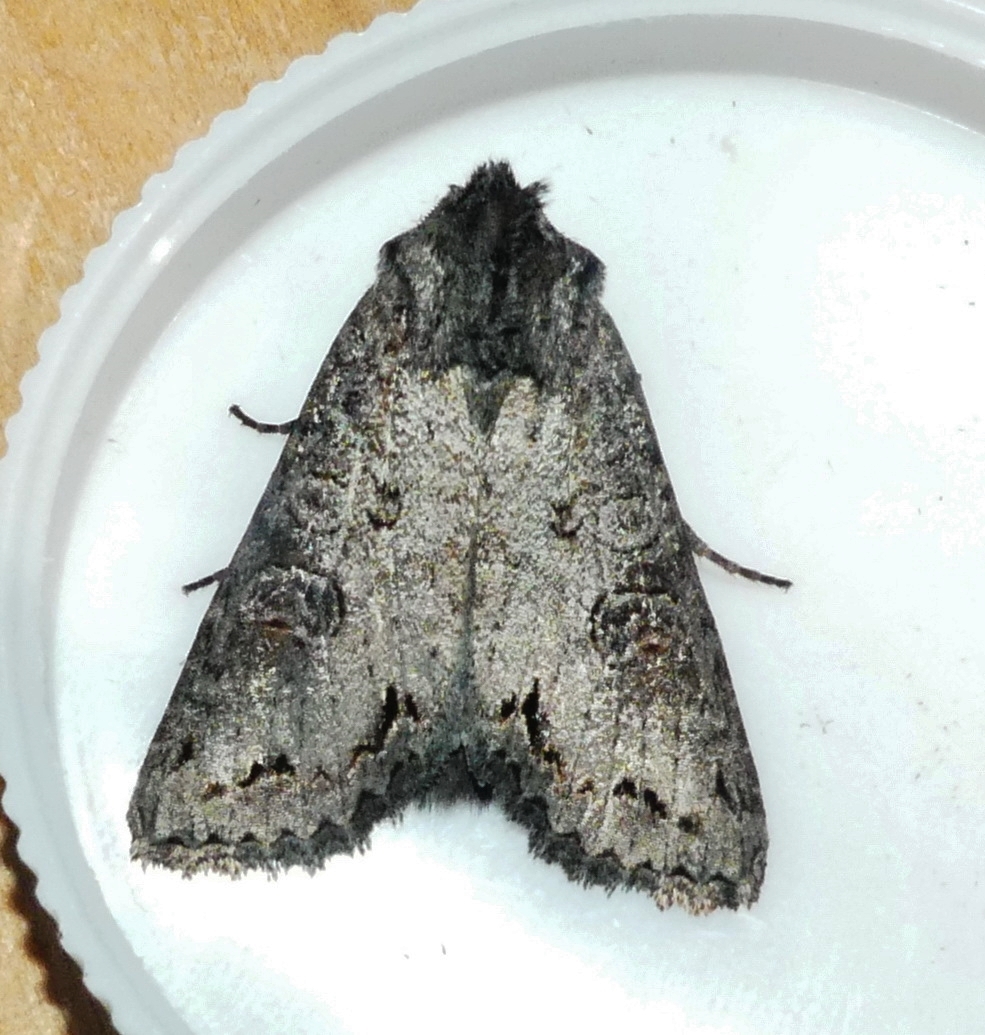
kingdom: Animalia
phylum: Arthropoda
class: Insecta
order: Lepidoptera
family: Noctuidae
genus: Polia
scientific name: Polia purpurissata
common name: Purple arches moth
